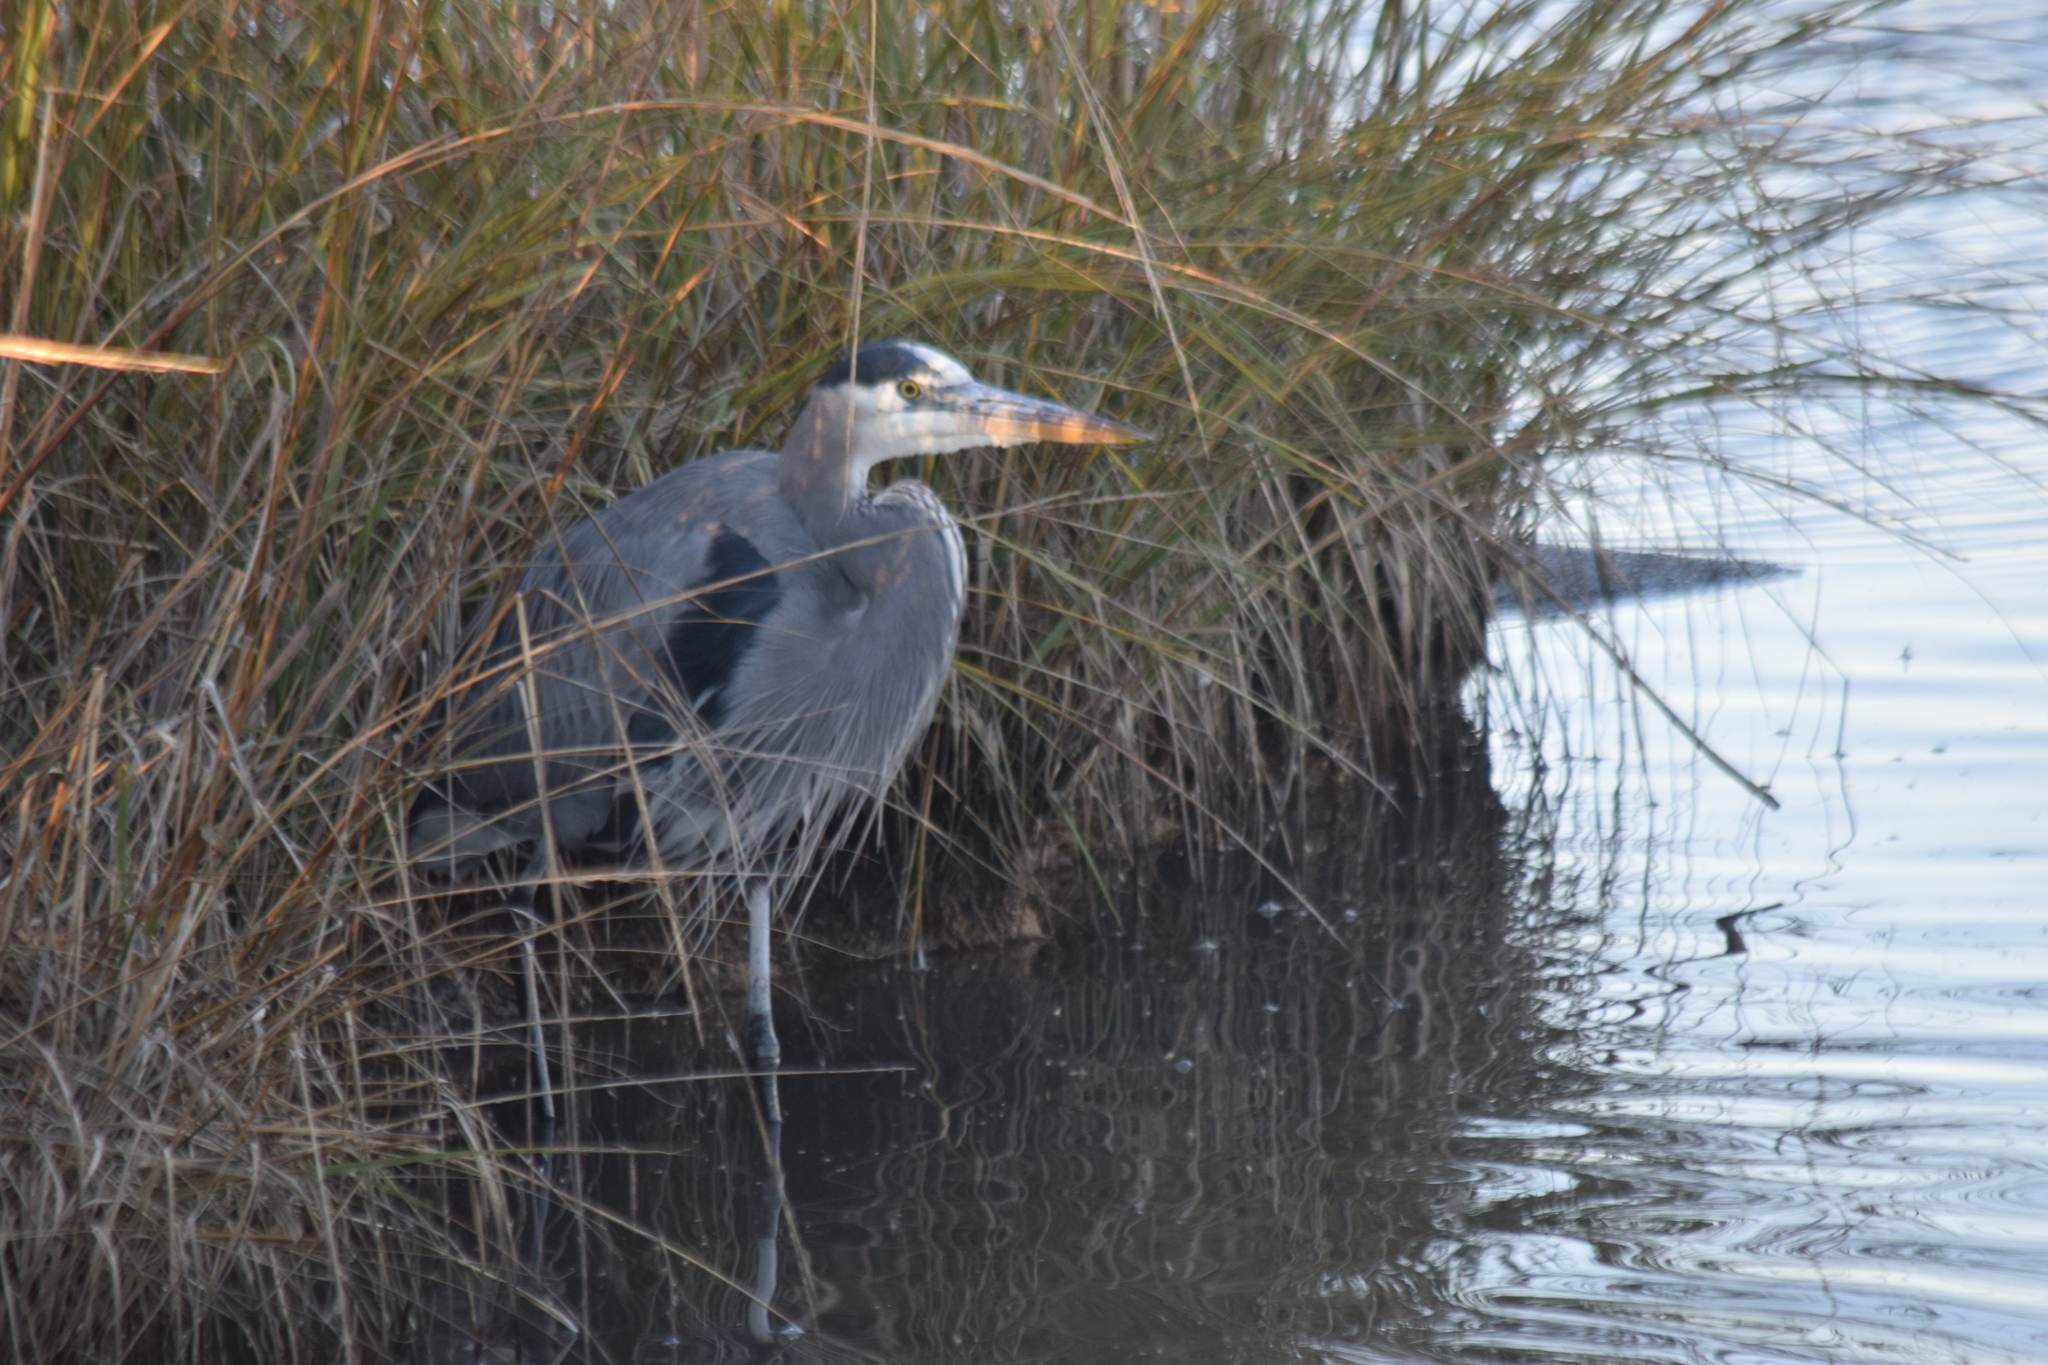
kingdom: Animalia
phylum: Chordata
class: Aves
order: Pelecaniformes
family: Ardeidae
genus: Ardea
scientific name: Ardea herodias
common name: Great blue heron
